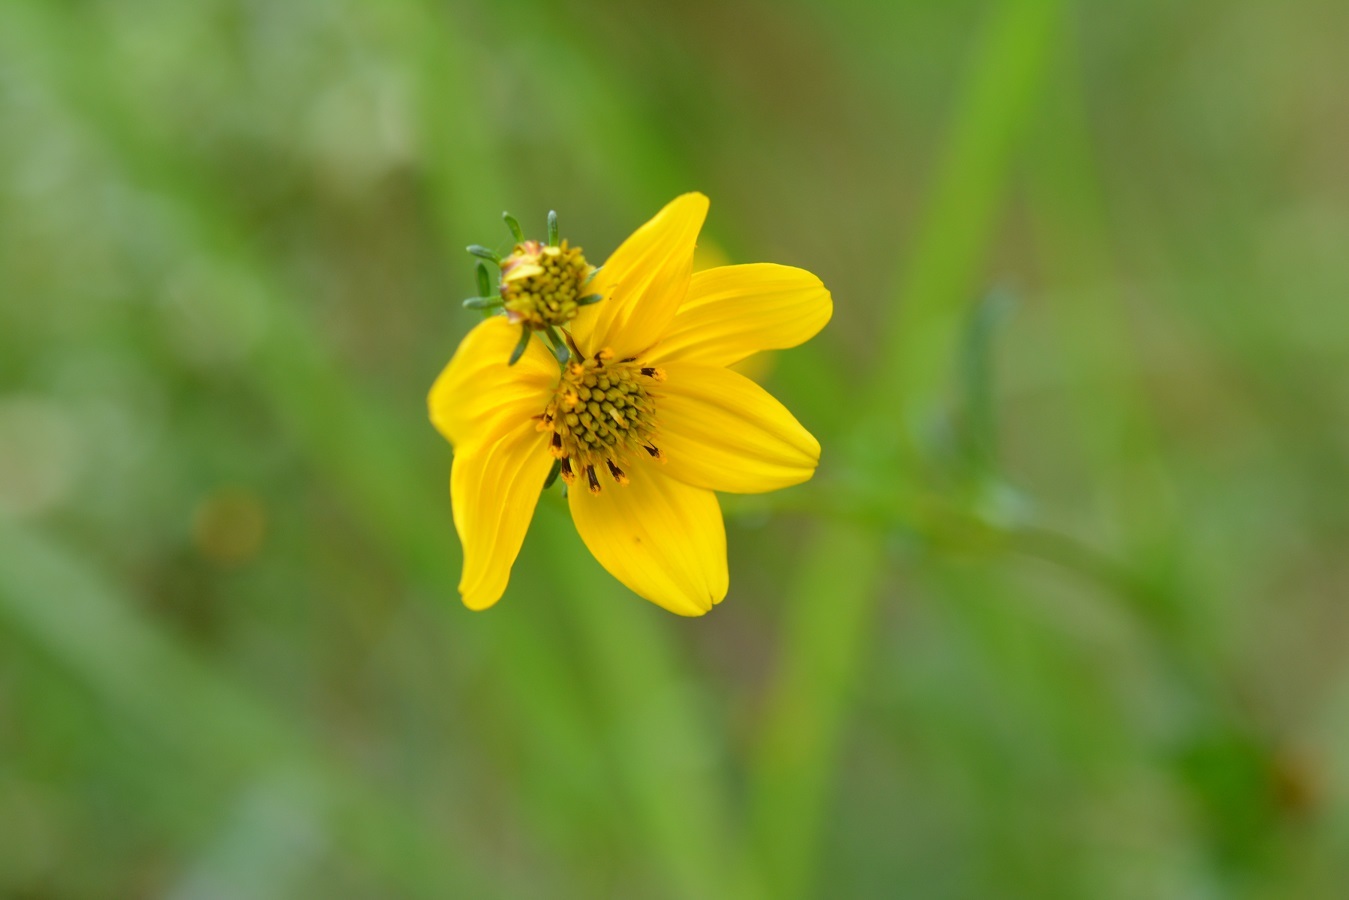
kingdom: Plantae
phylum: Tracheophyta
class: Magnoliopsida
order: Asterales
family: Asteraceae
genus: Bidens
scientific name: Bidens aurea
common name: Arizona beggar-ticks
